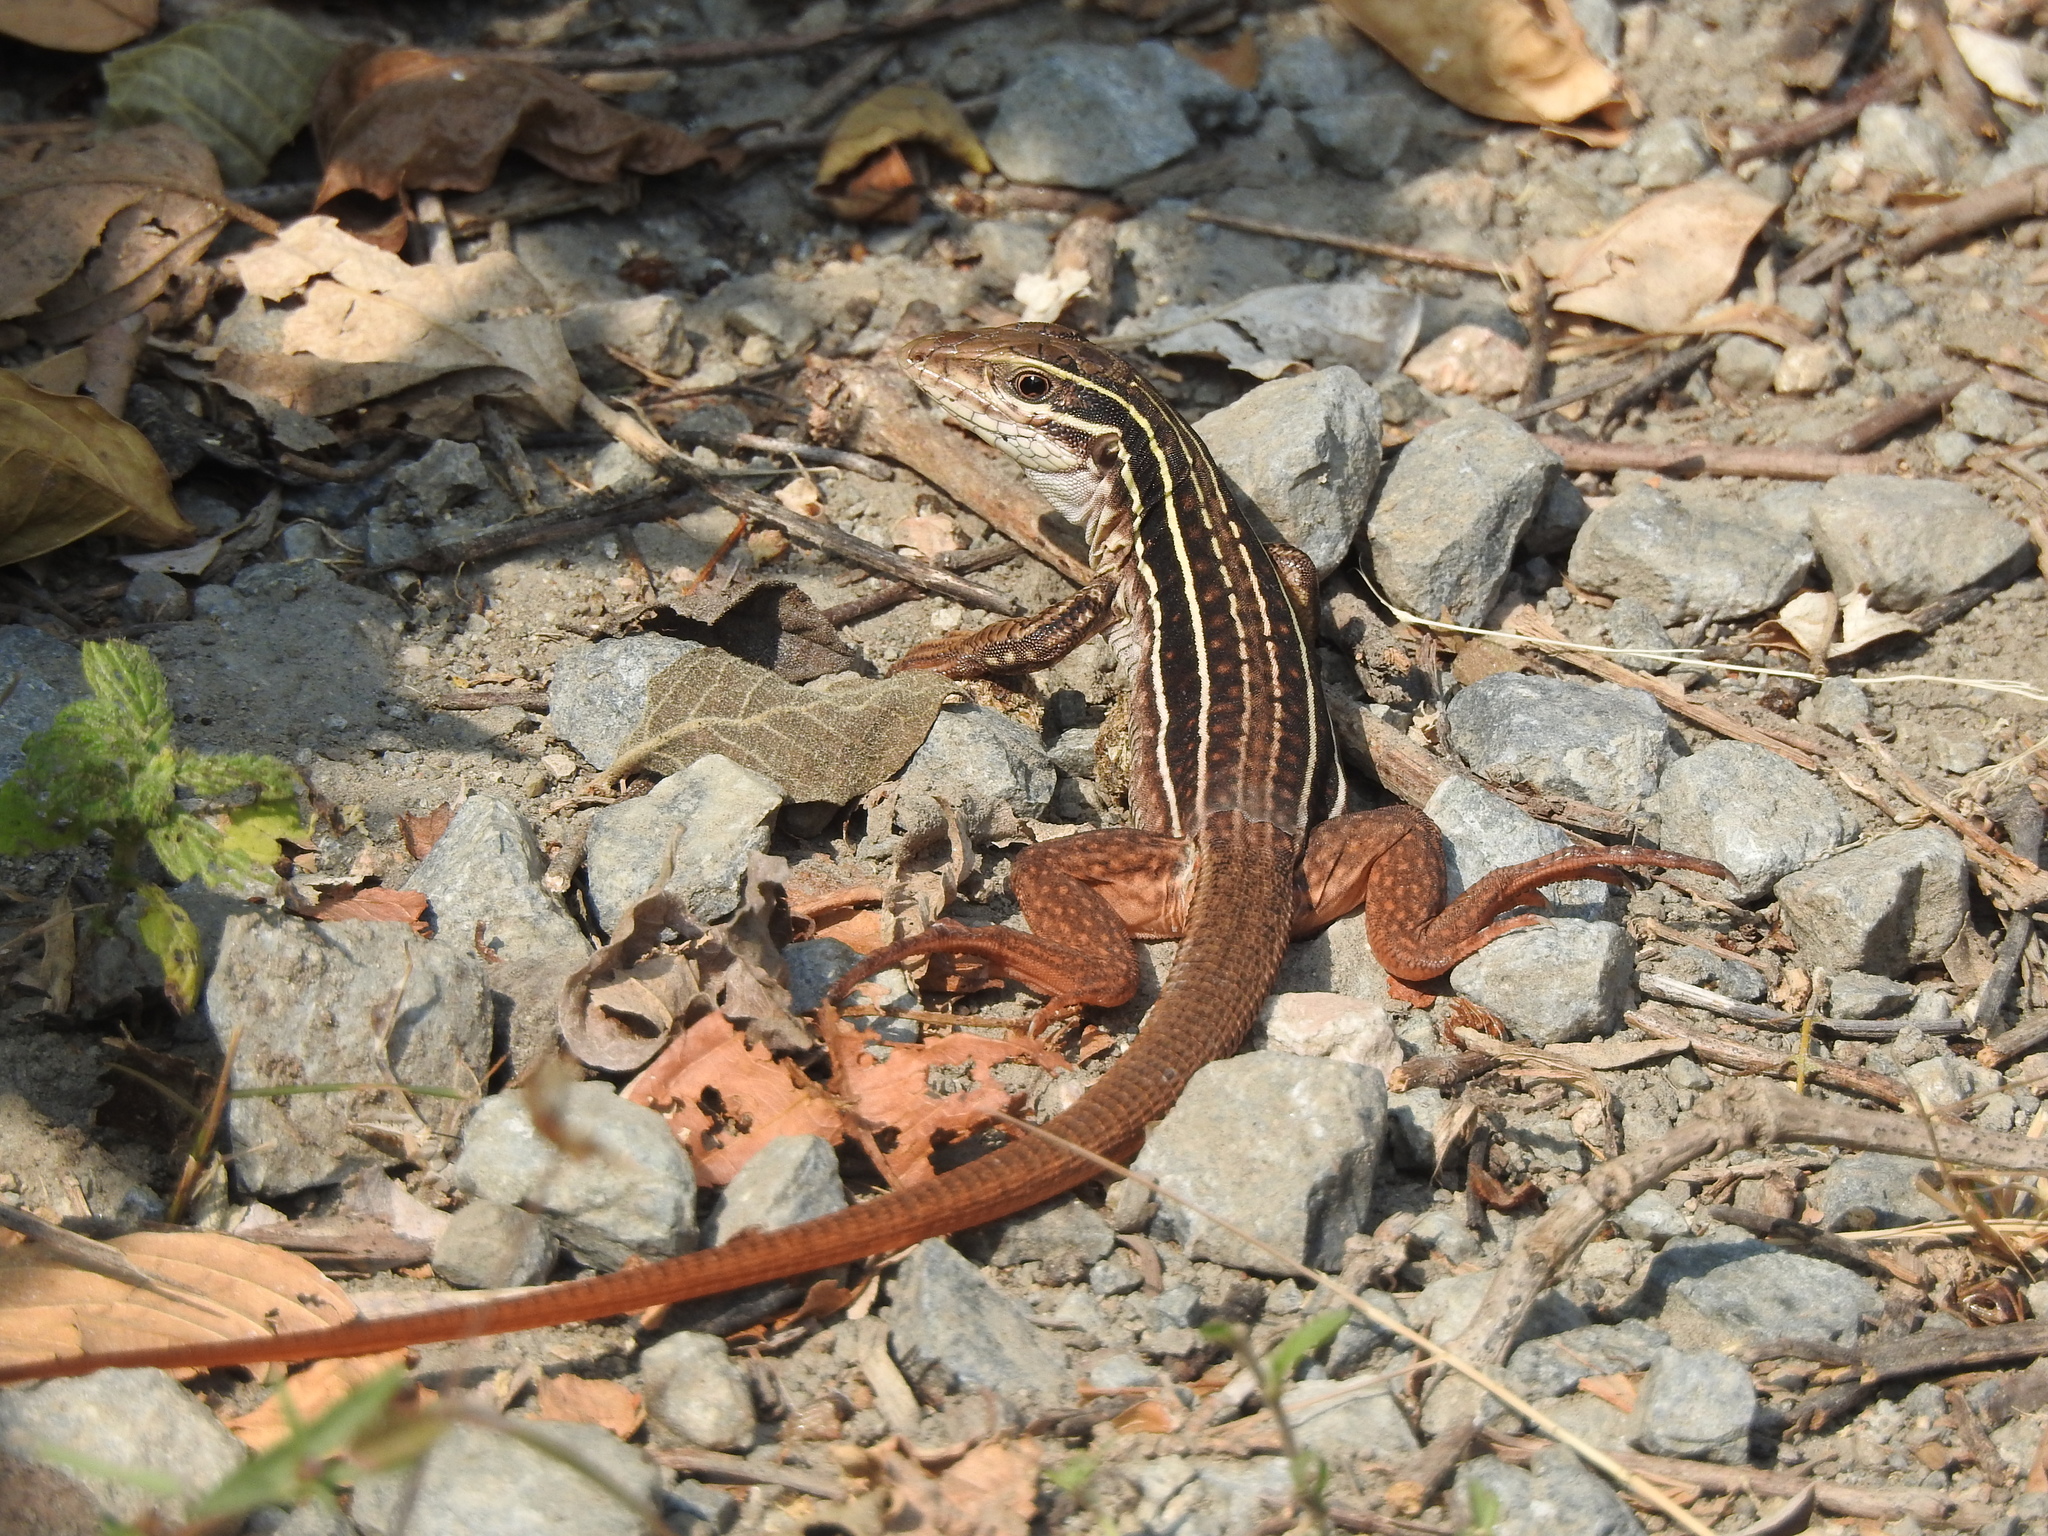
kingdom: Animalia
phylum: Chordata
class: Squamata
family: Teiidae
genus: Aspidoscelis
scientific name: Aspidoscelis communis
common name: Colima giant whiptail
